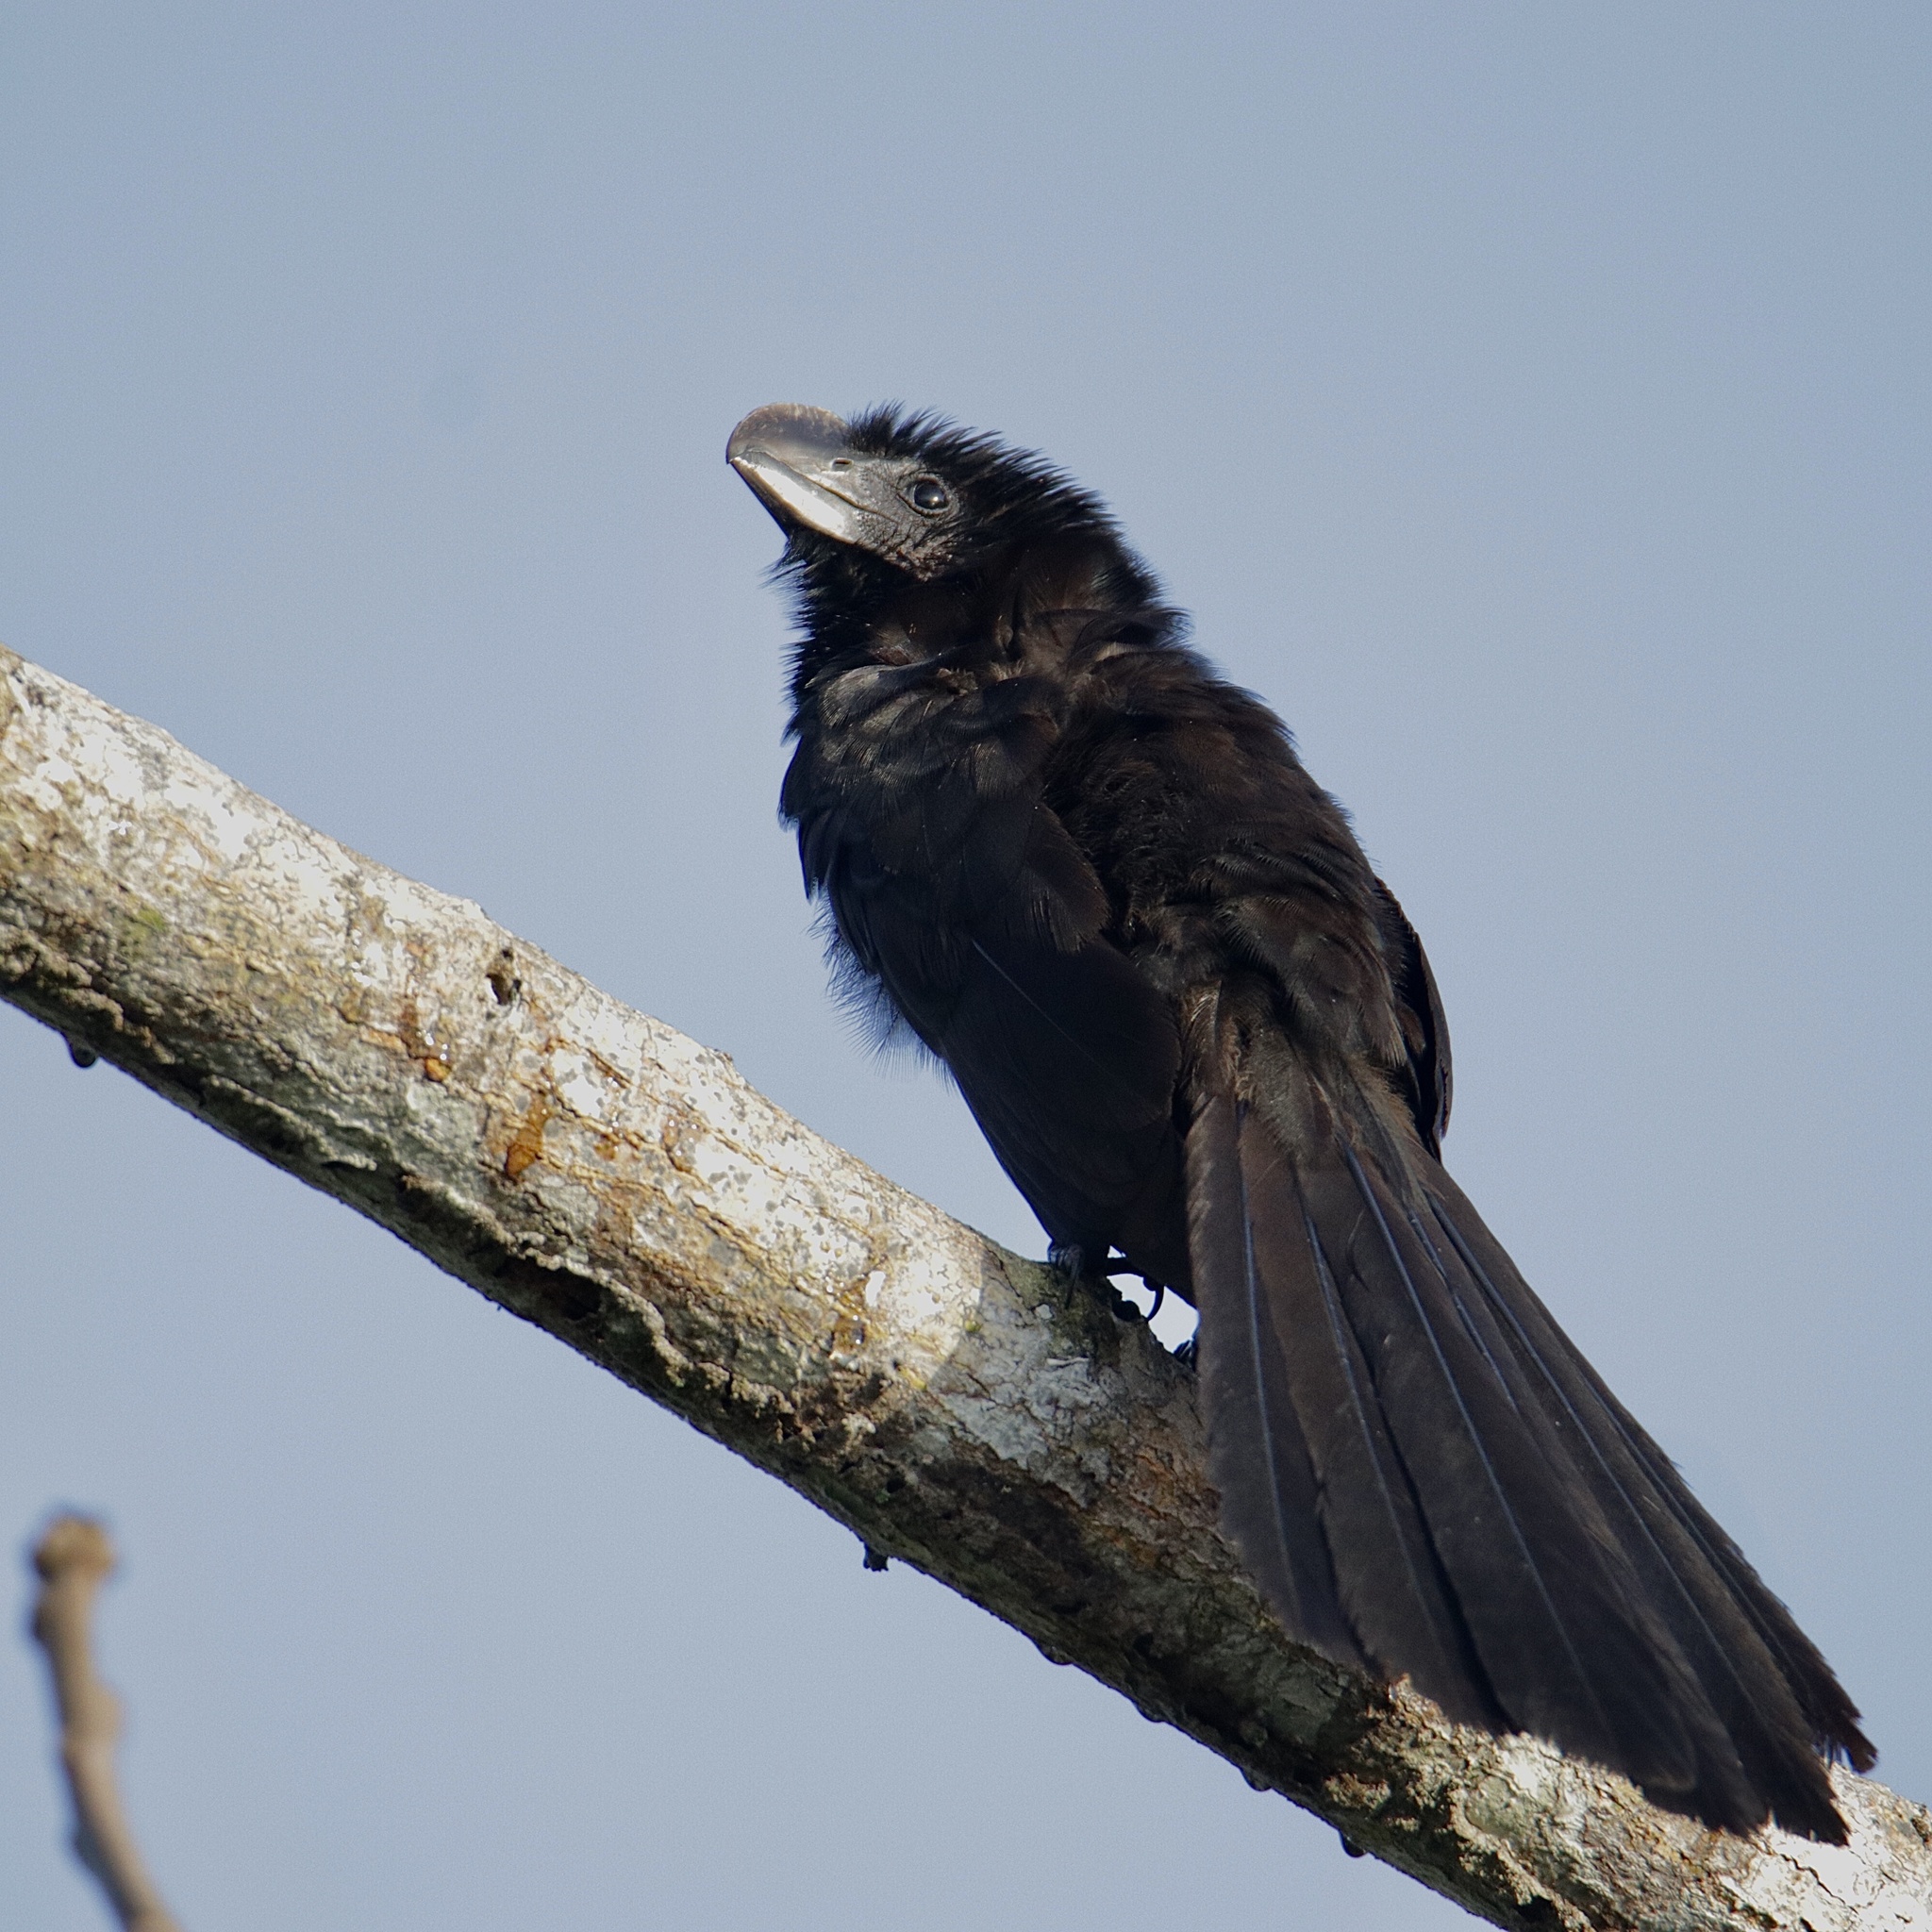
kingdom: Animalia
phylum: Chordata
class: Aves
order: Cuculiformes
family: Cuculidae
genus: Crotophaga
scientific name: Crotophaga ani
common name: Smooth-billed ani
